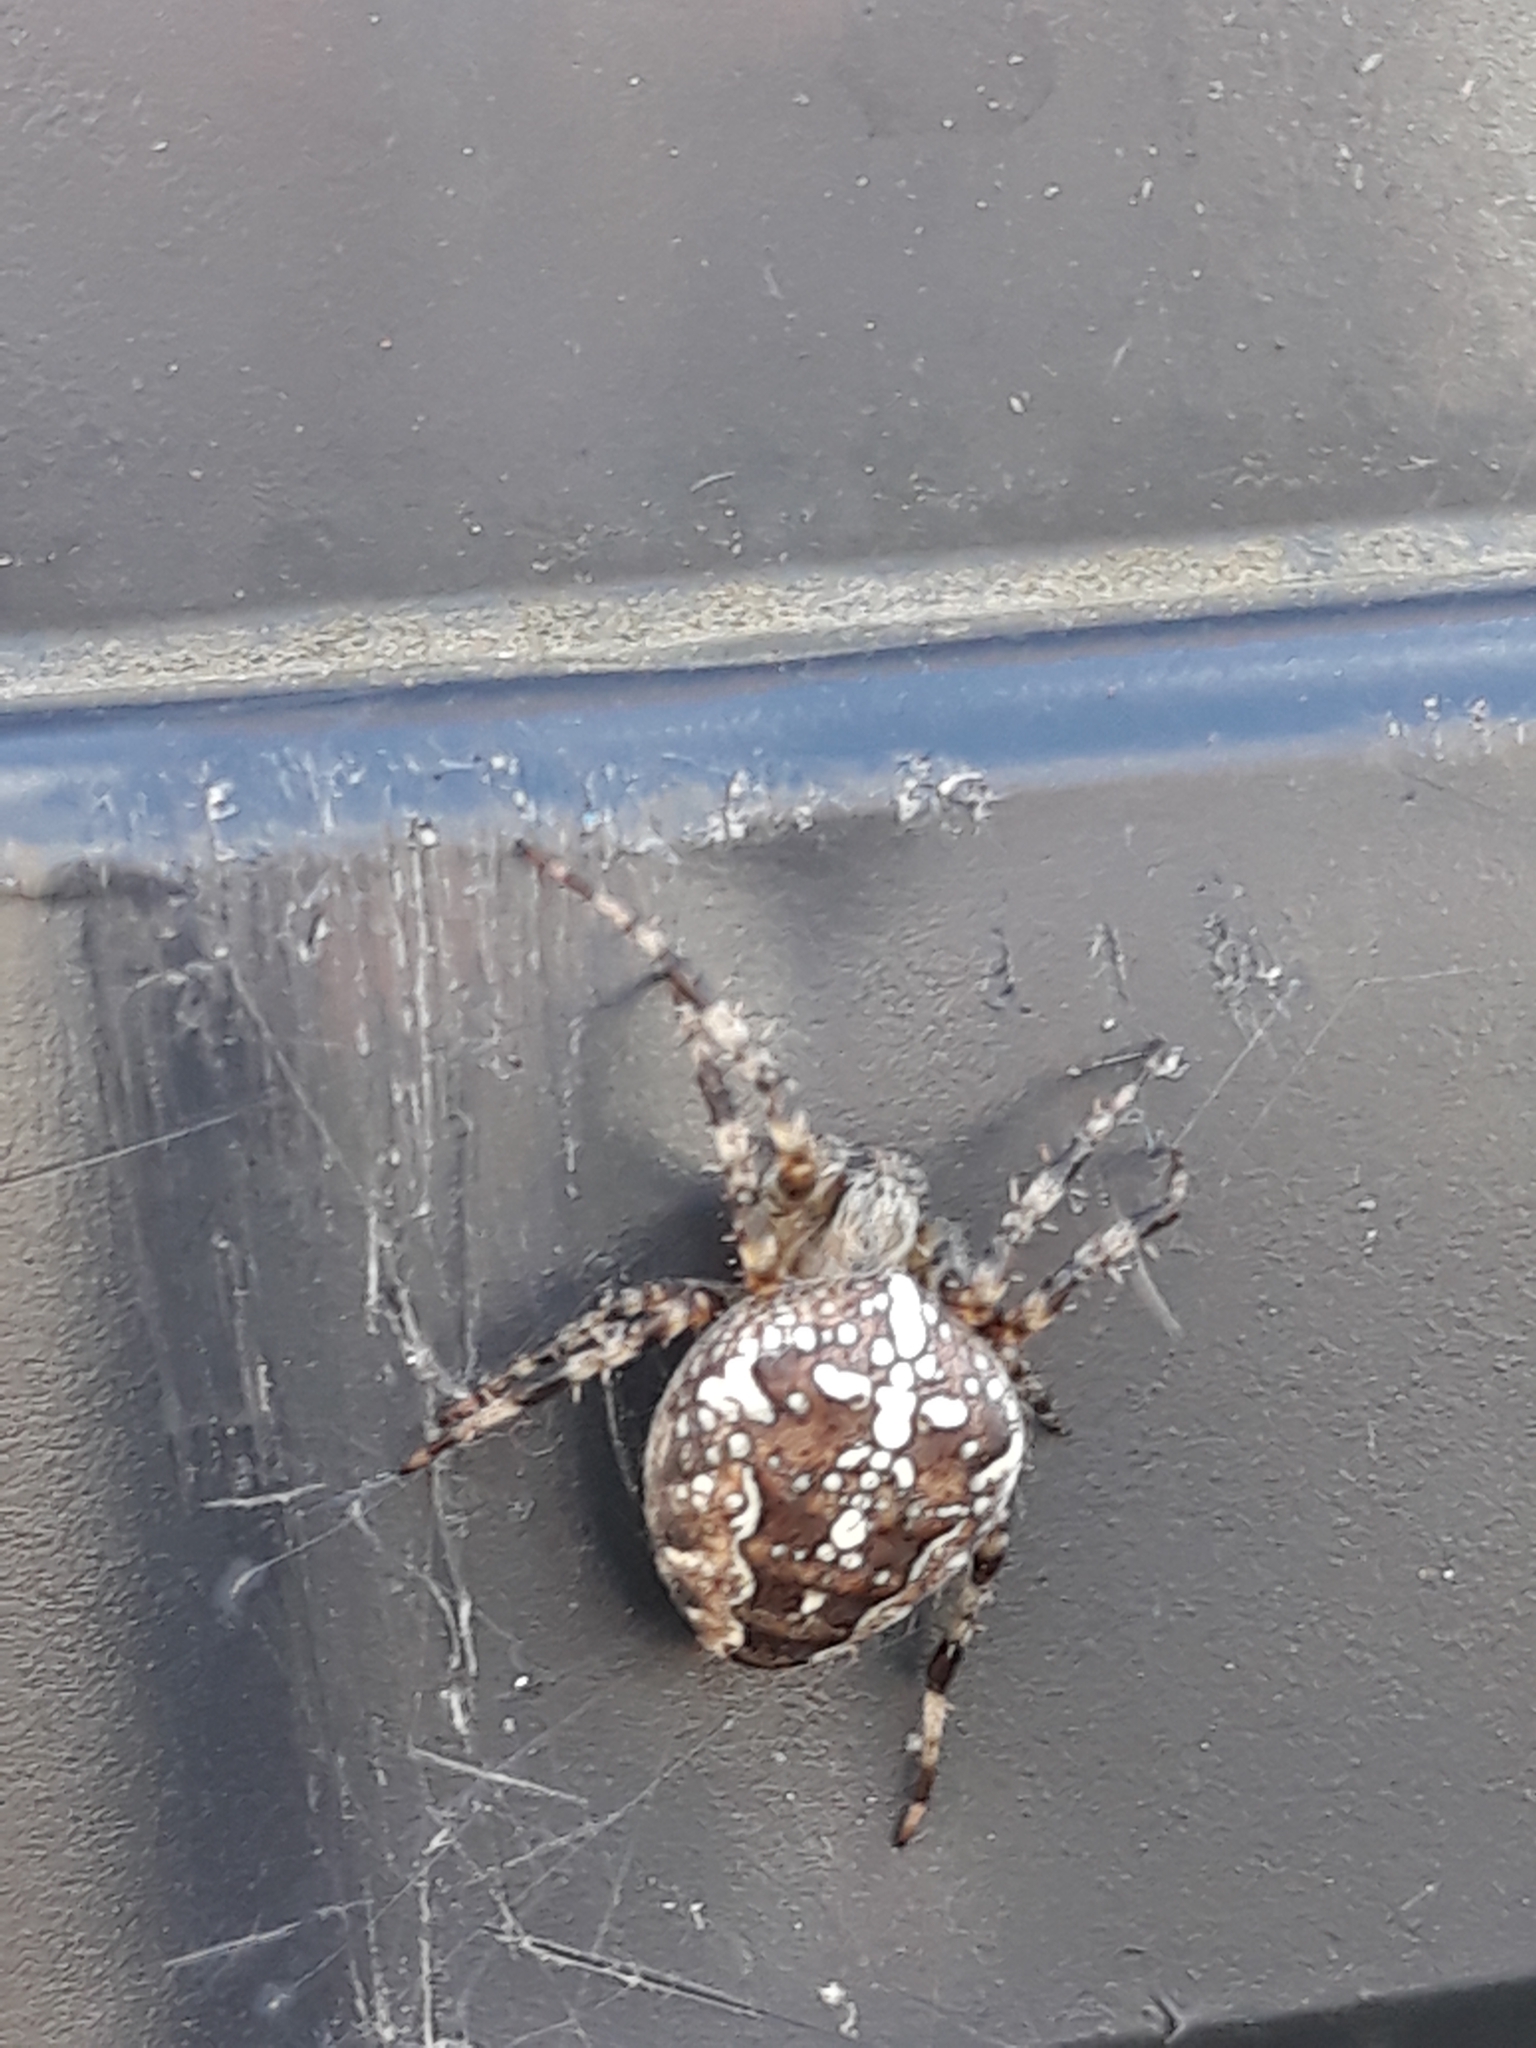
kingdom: Animalia
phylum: Arthropoda
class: Arachnida
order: Araneae
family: Araneidae
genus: Araneus
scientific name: Araneus diadematus
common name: Cross orbweaver
